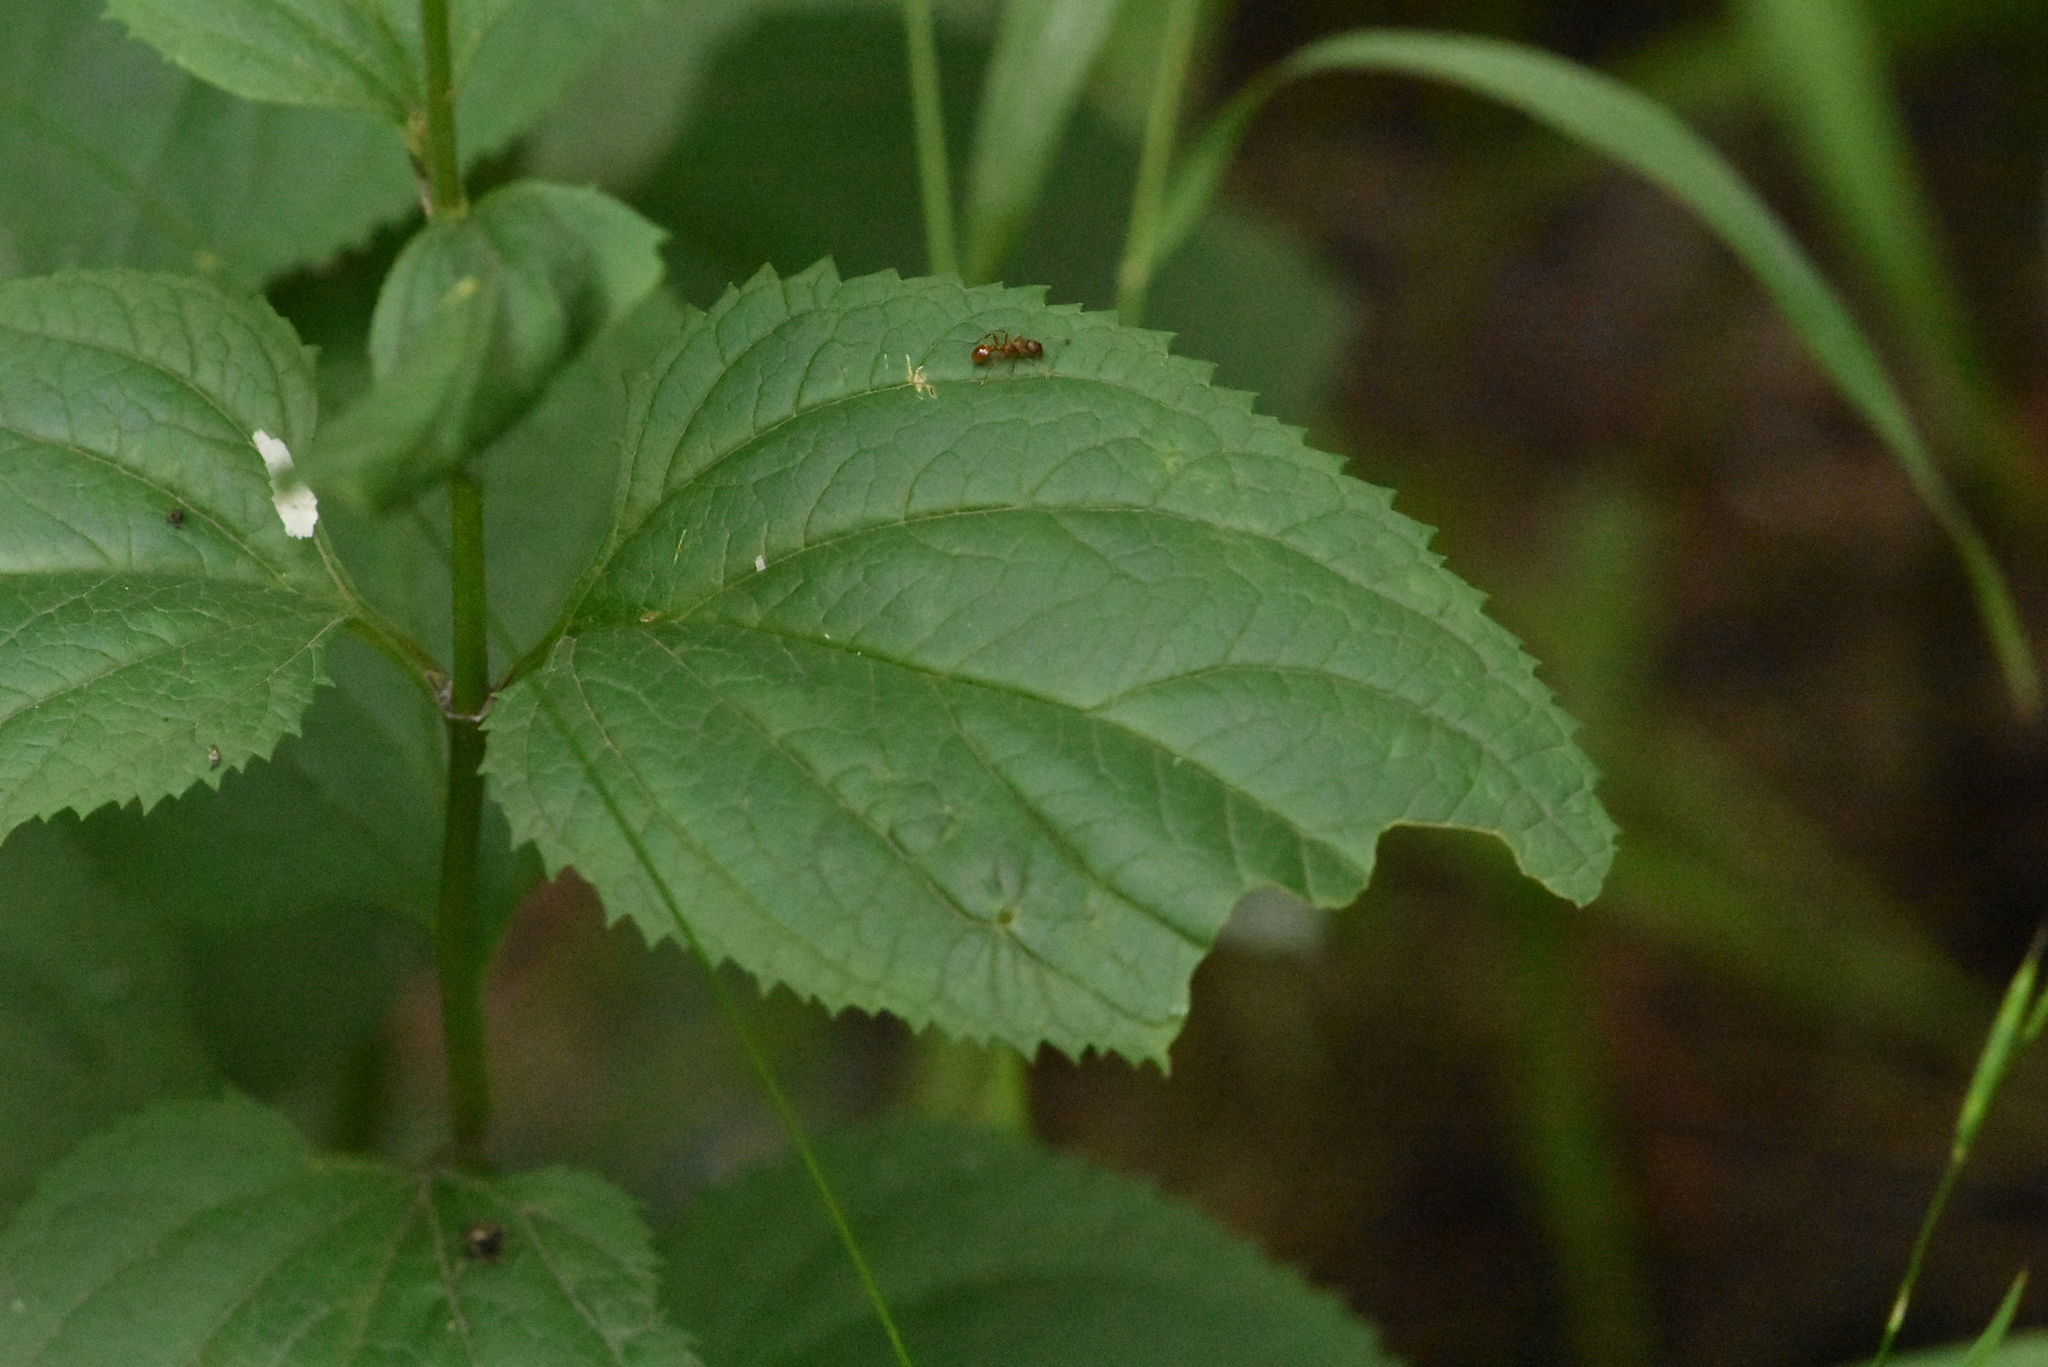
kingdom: Plantae
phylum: Tracheophyta
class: Magnoliopsida
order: Lamiales
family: Scrophulariaceae
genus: Scrophularia
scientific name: Scrophularia nodosa
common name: Common figwort
